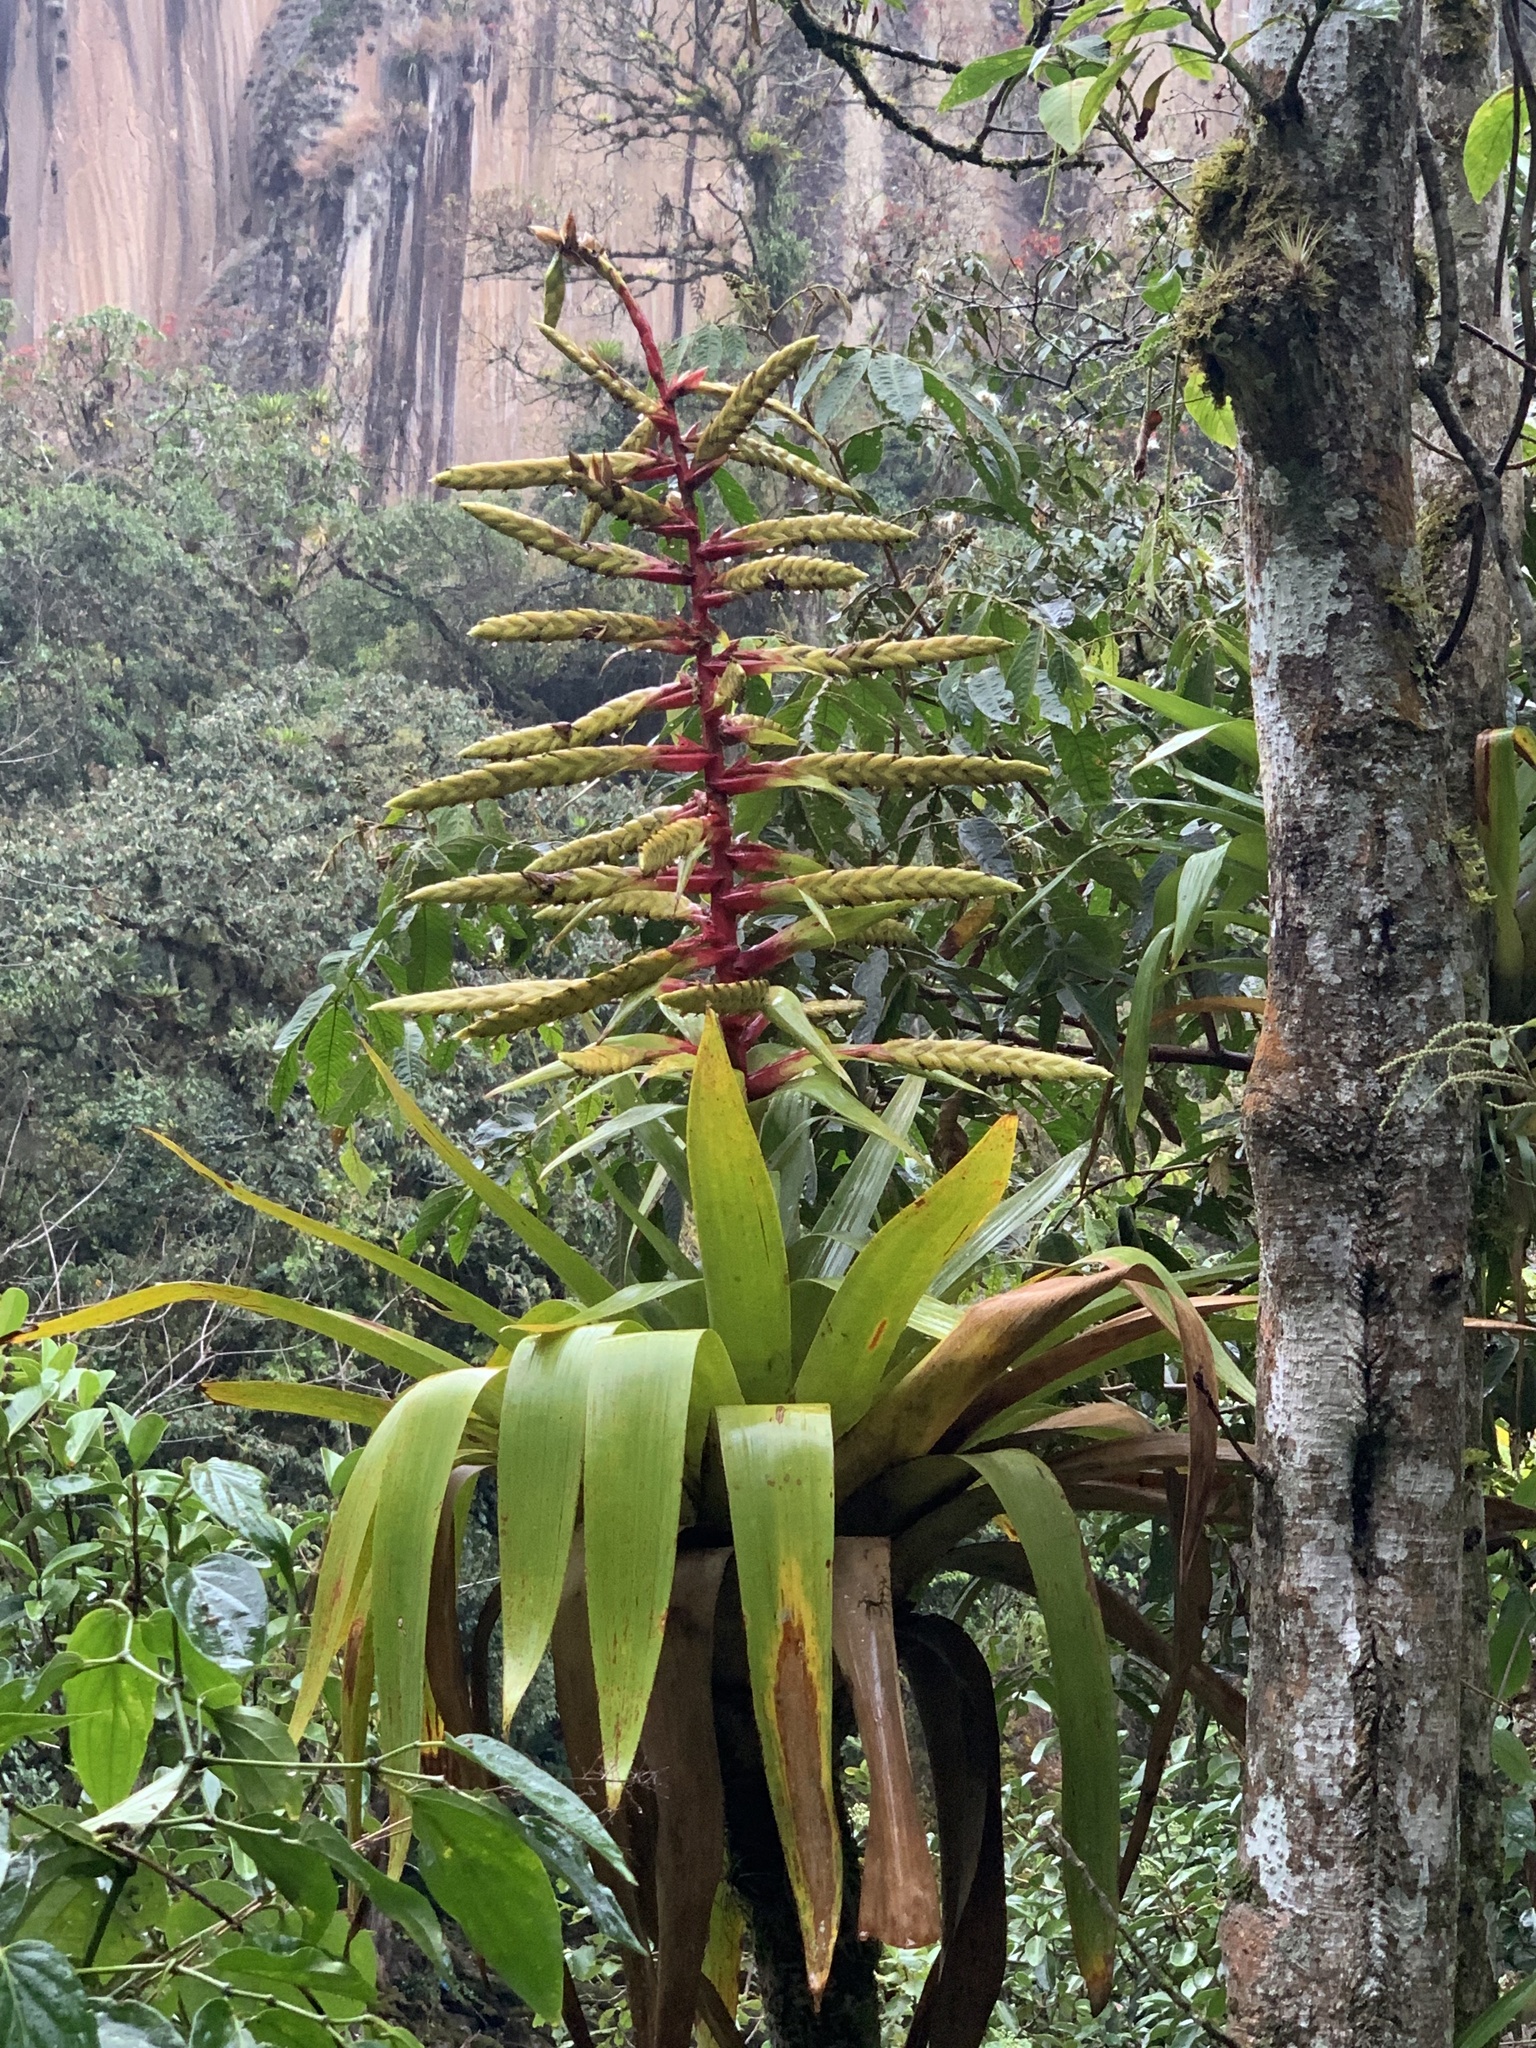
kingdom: Plantae
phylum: Tracheophyta
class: Liliopsida
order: Poales
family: Bromeliaceae
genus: Tillandsia
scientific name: Tillandsia fendleri
